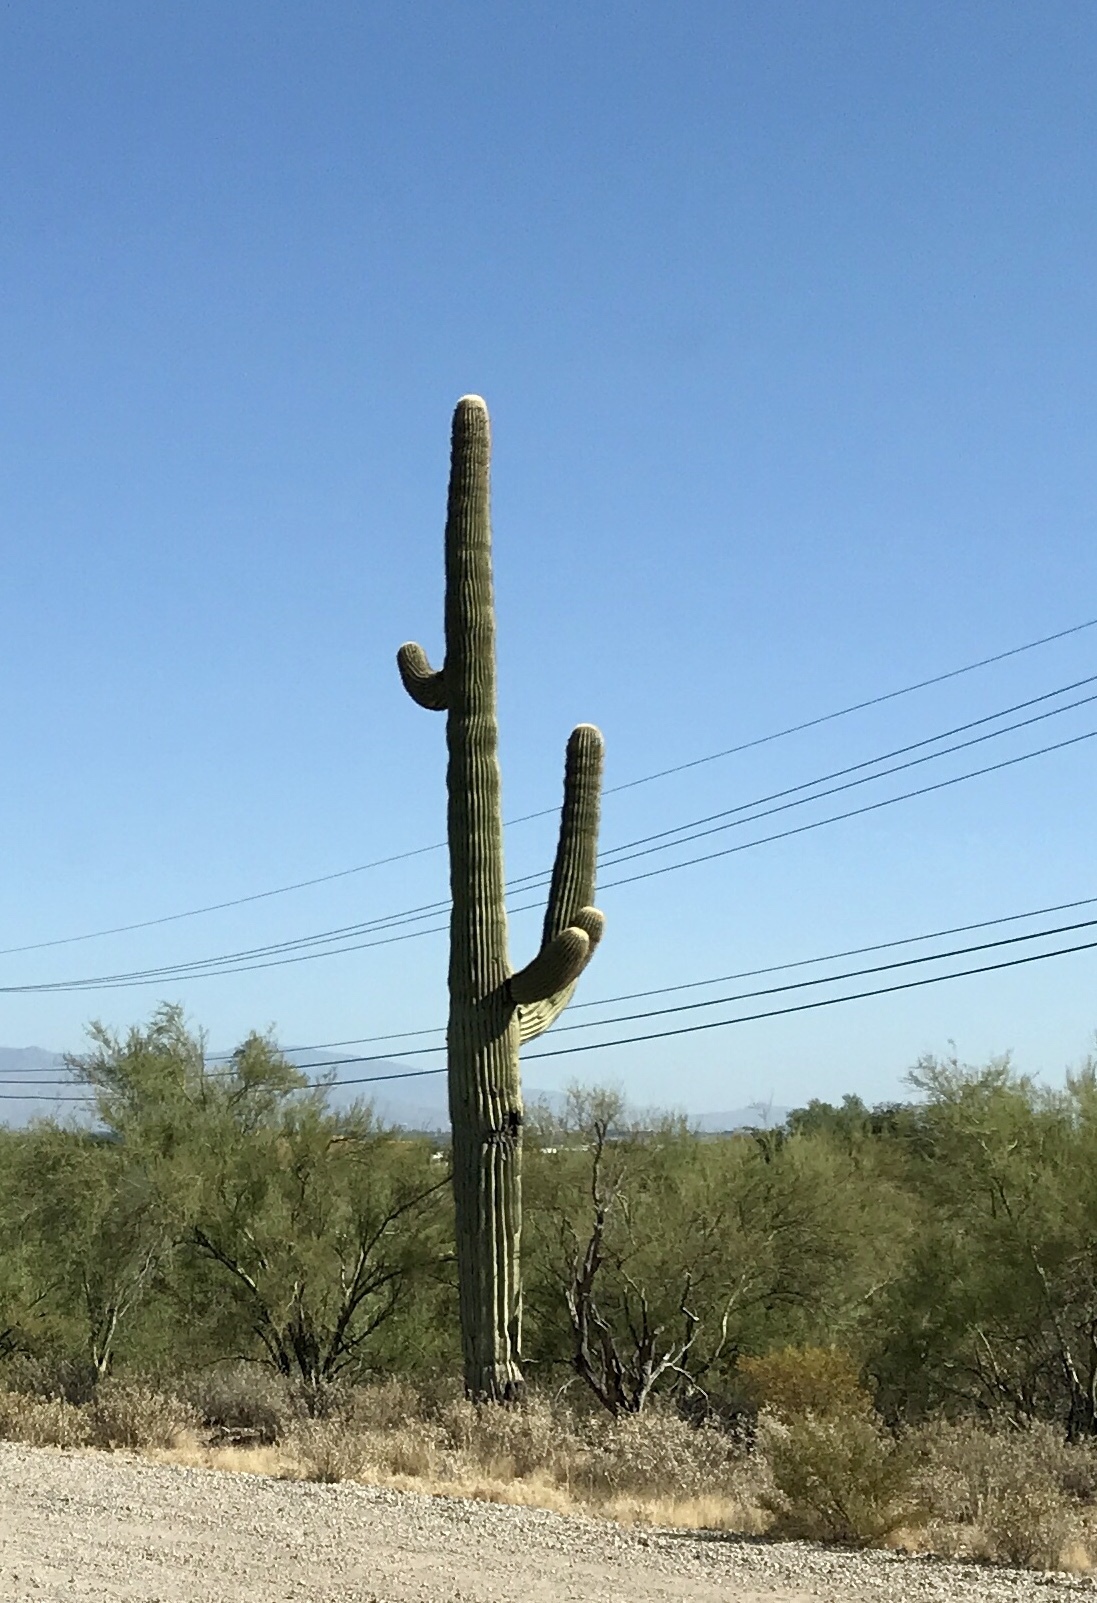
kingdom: Plantae
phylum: Tracheophyta
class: Magnoliopsida
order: Caryophyllales
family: Cactaceae
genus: Carnegiea
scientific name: Carnegiea gigantea
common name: Saguaro
